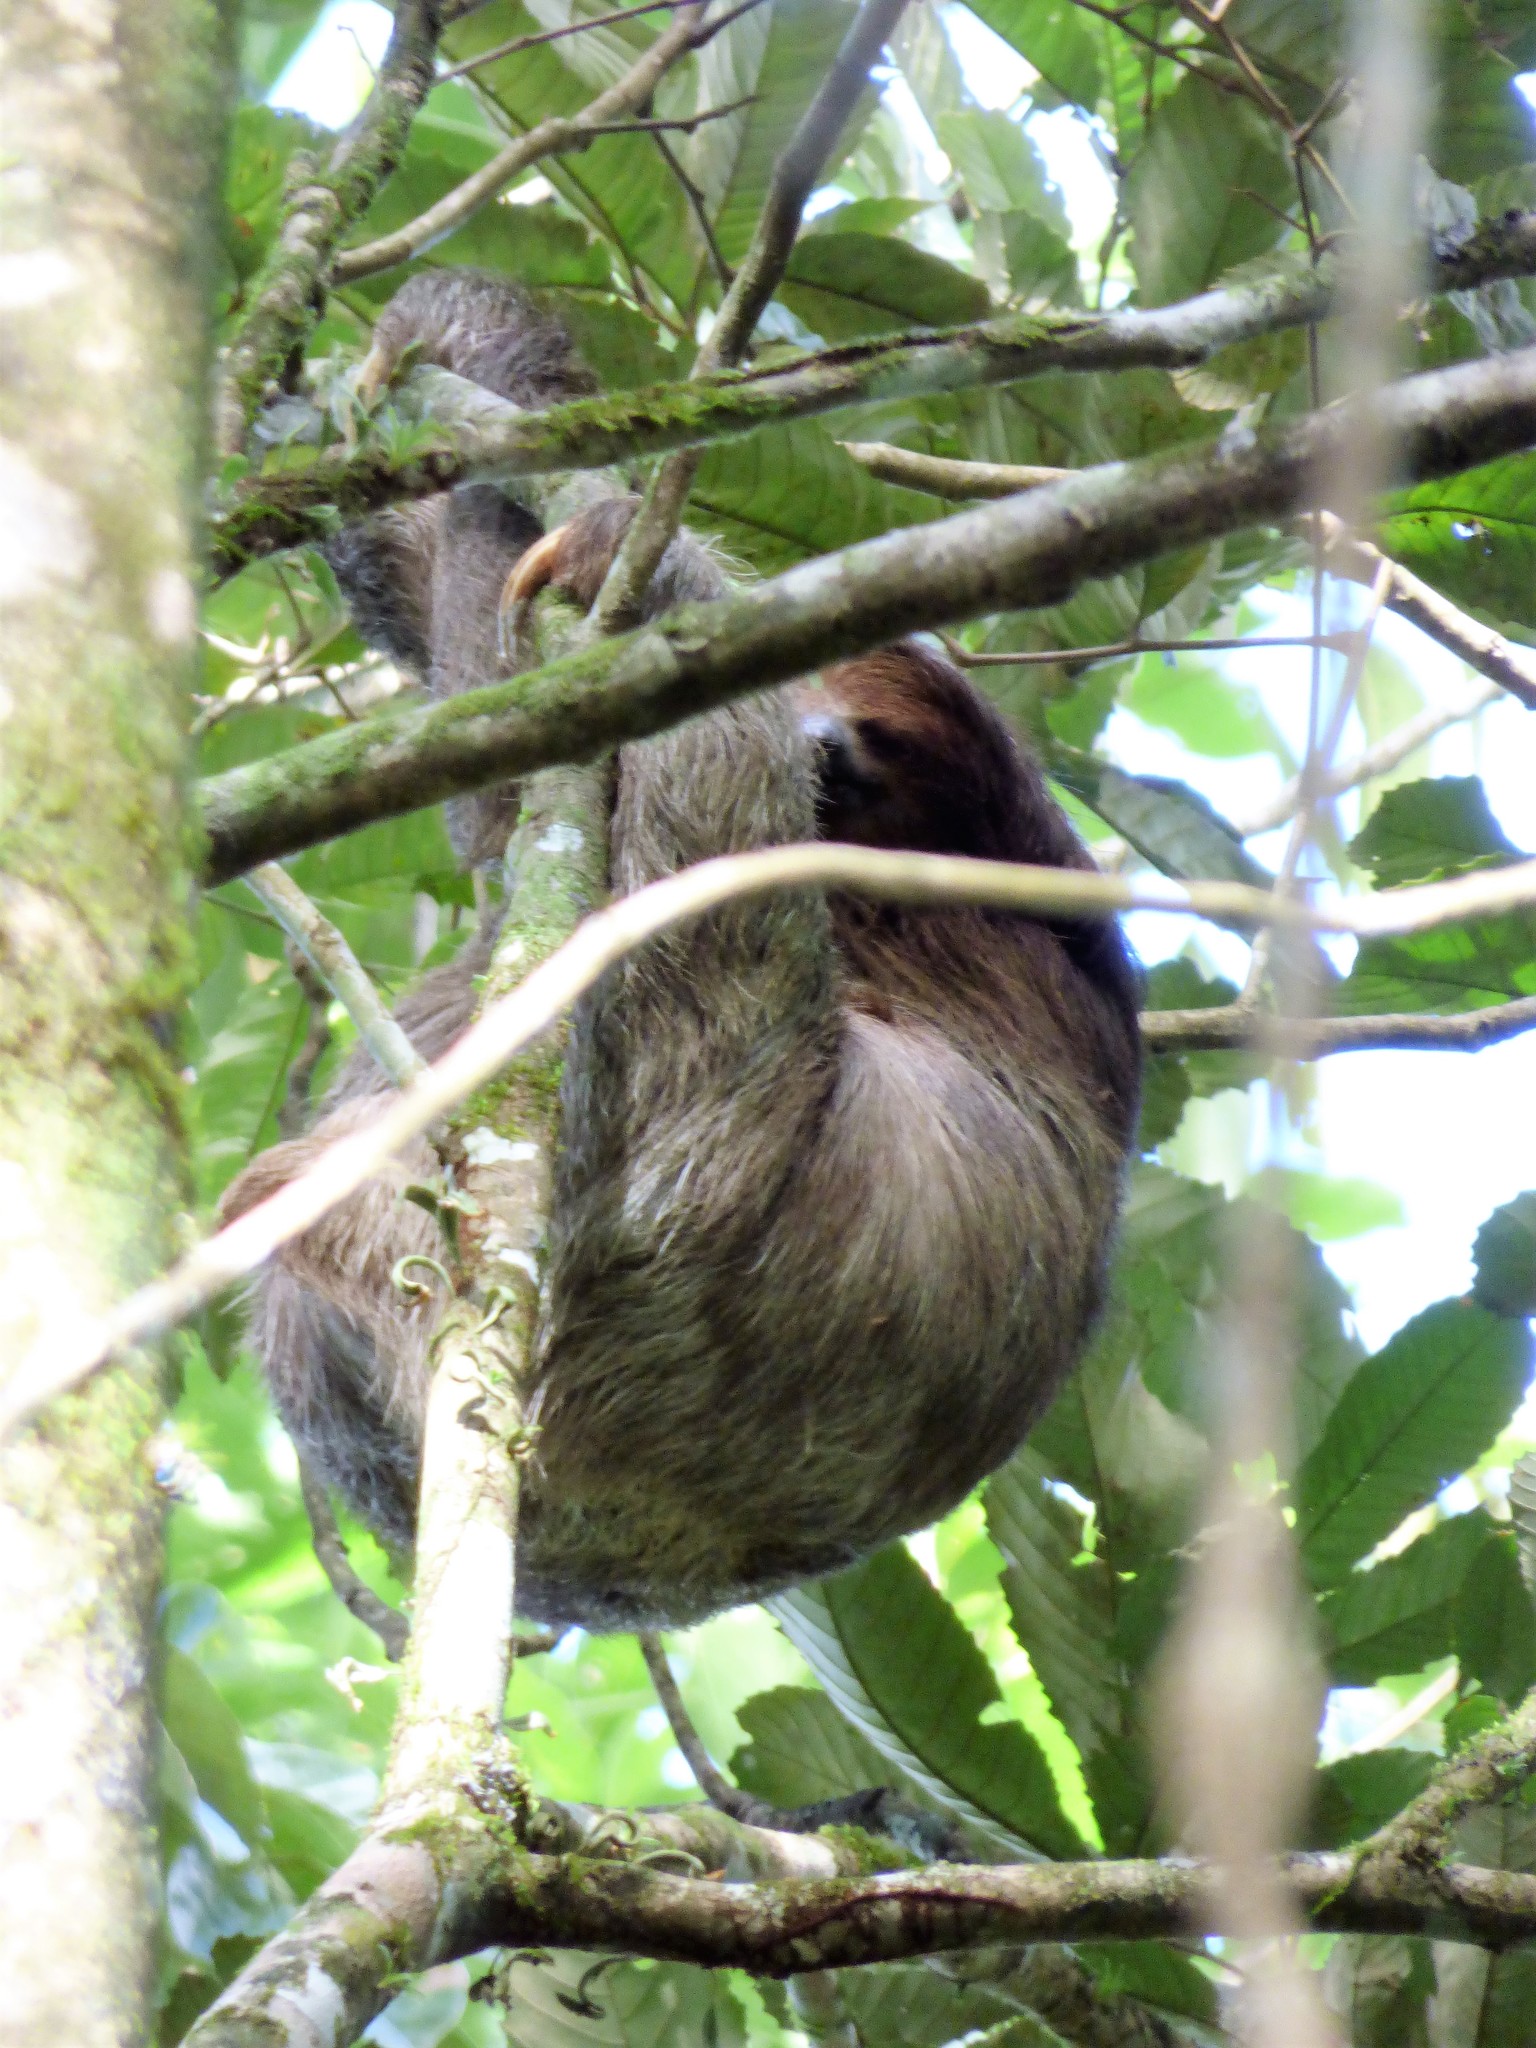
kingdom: Animalia
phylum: Chordata
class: Mammalia
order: Pilosa
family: Bradypodidae
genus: Bradypus
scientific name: Bradypus variegatus
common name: Brown-throated three-toed sloth
